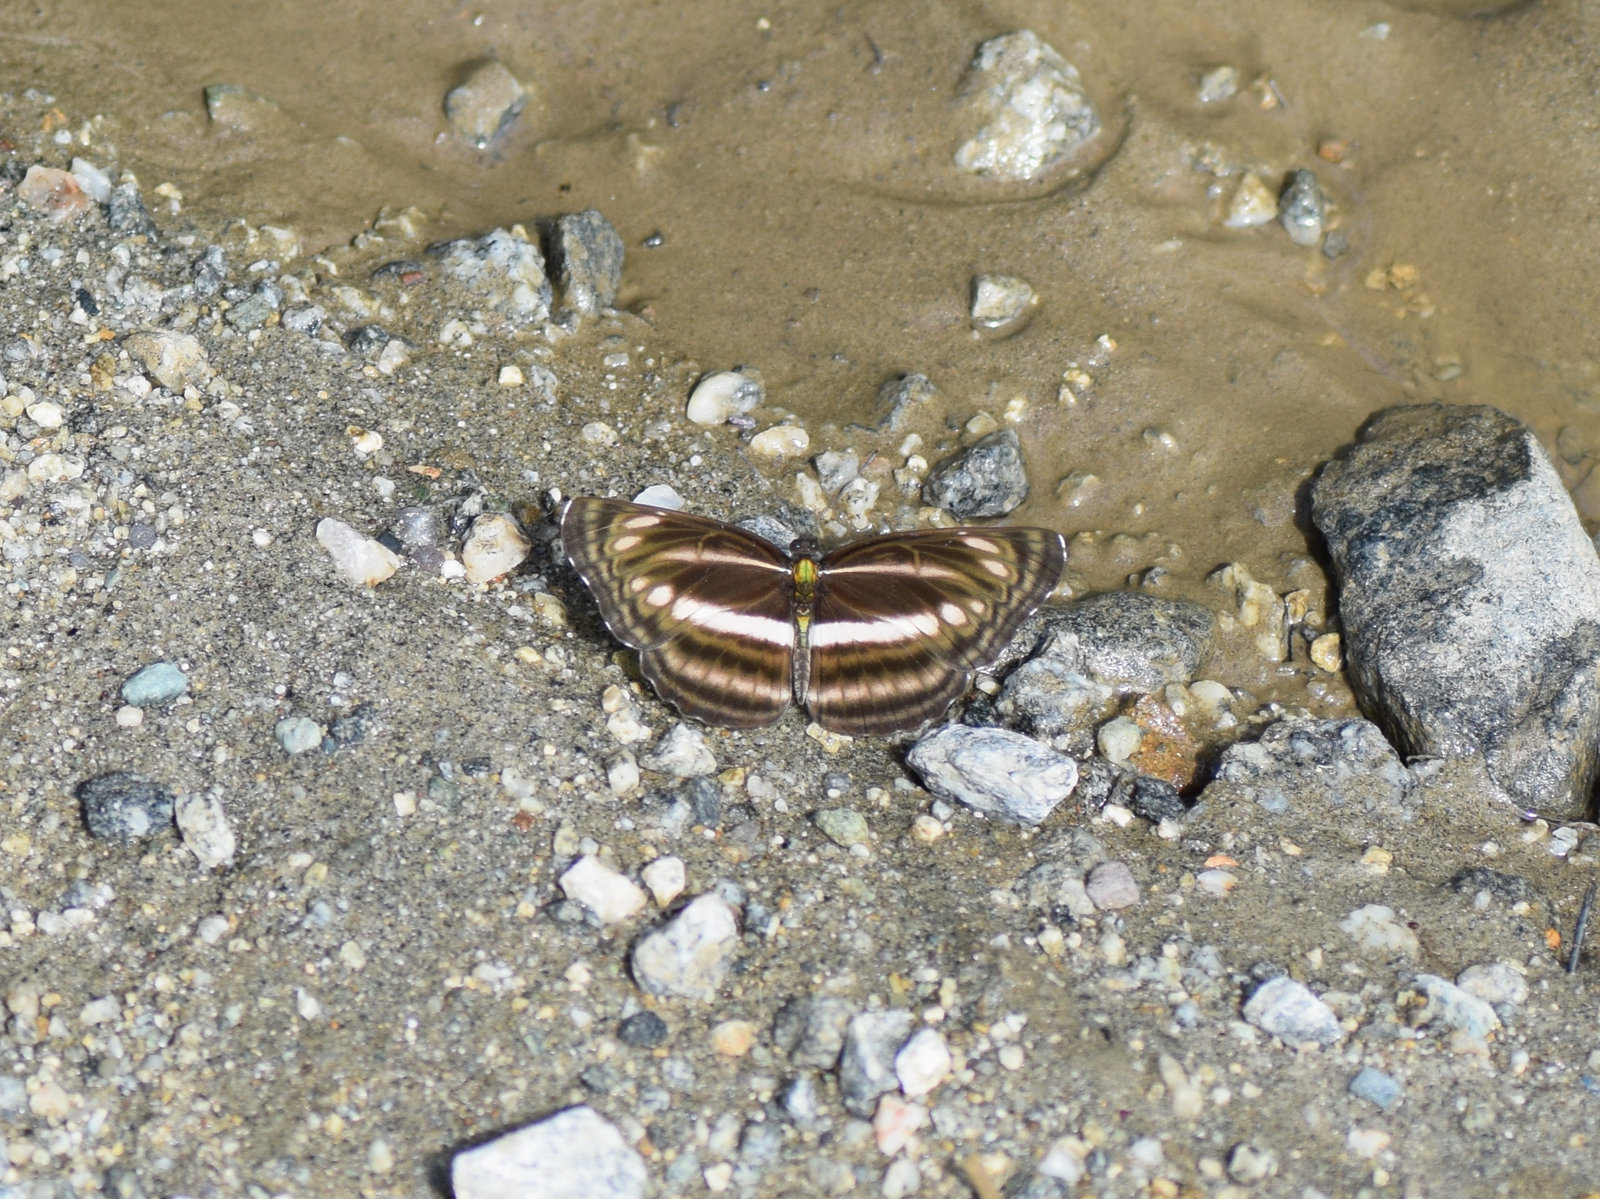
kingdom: Animalia
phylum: Arthropoda
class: Insecta
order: Lepidoptera
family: Nymphalidae
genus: Neptis
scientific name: Neptis cartica
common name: Plain sailer
